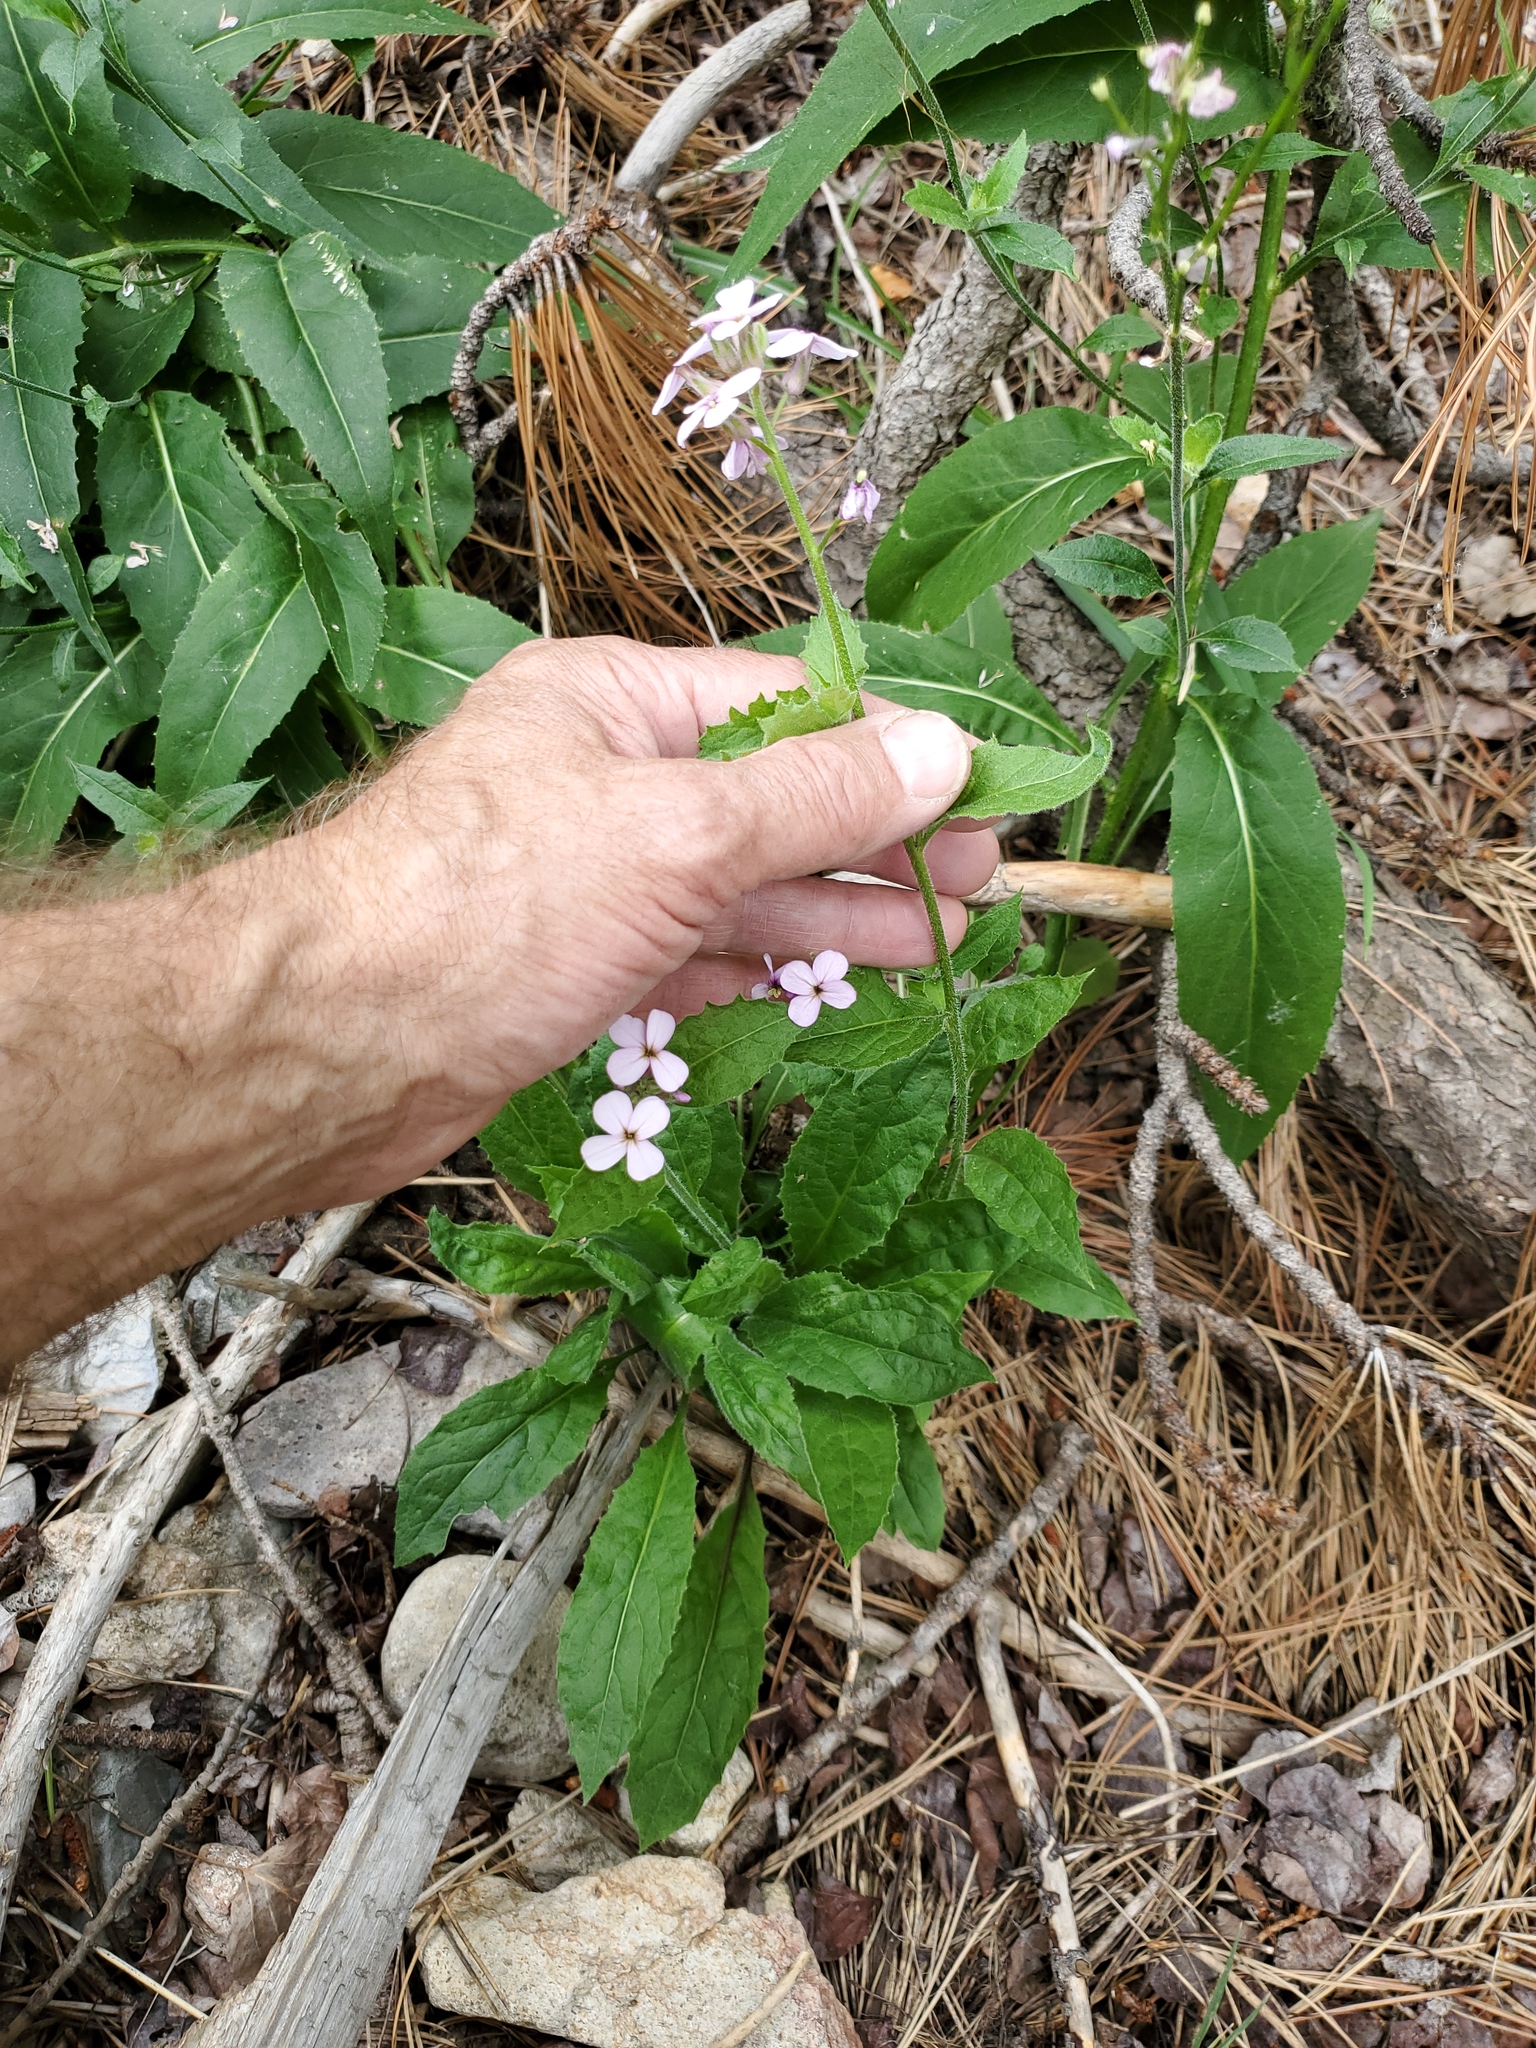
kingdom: Plantae
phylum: Tracheophyta
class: Magnoliopsida
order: Brassicales
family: Brassicaceae
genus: Hesperis
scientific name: Hesperis matronalis
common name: Dame's-violet
